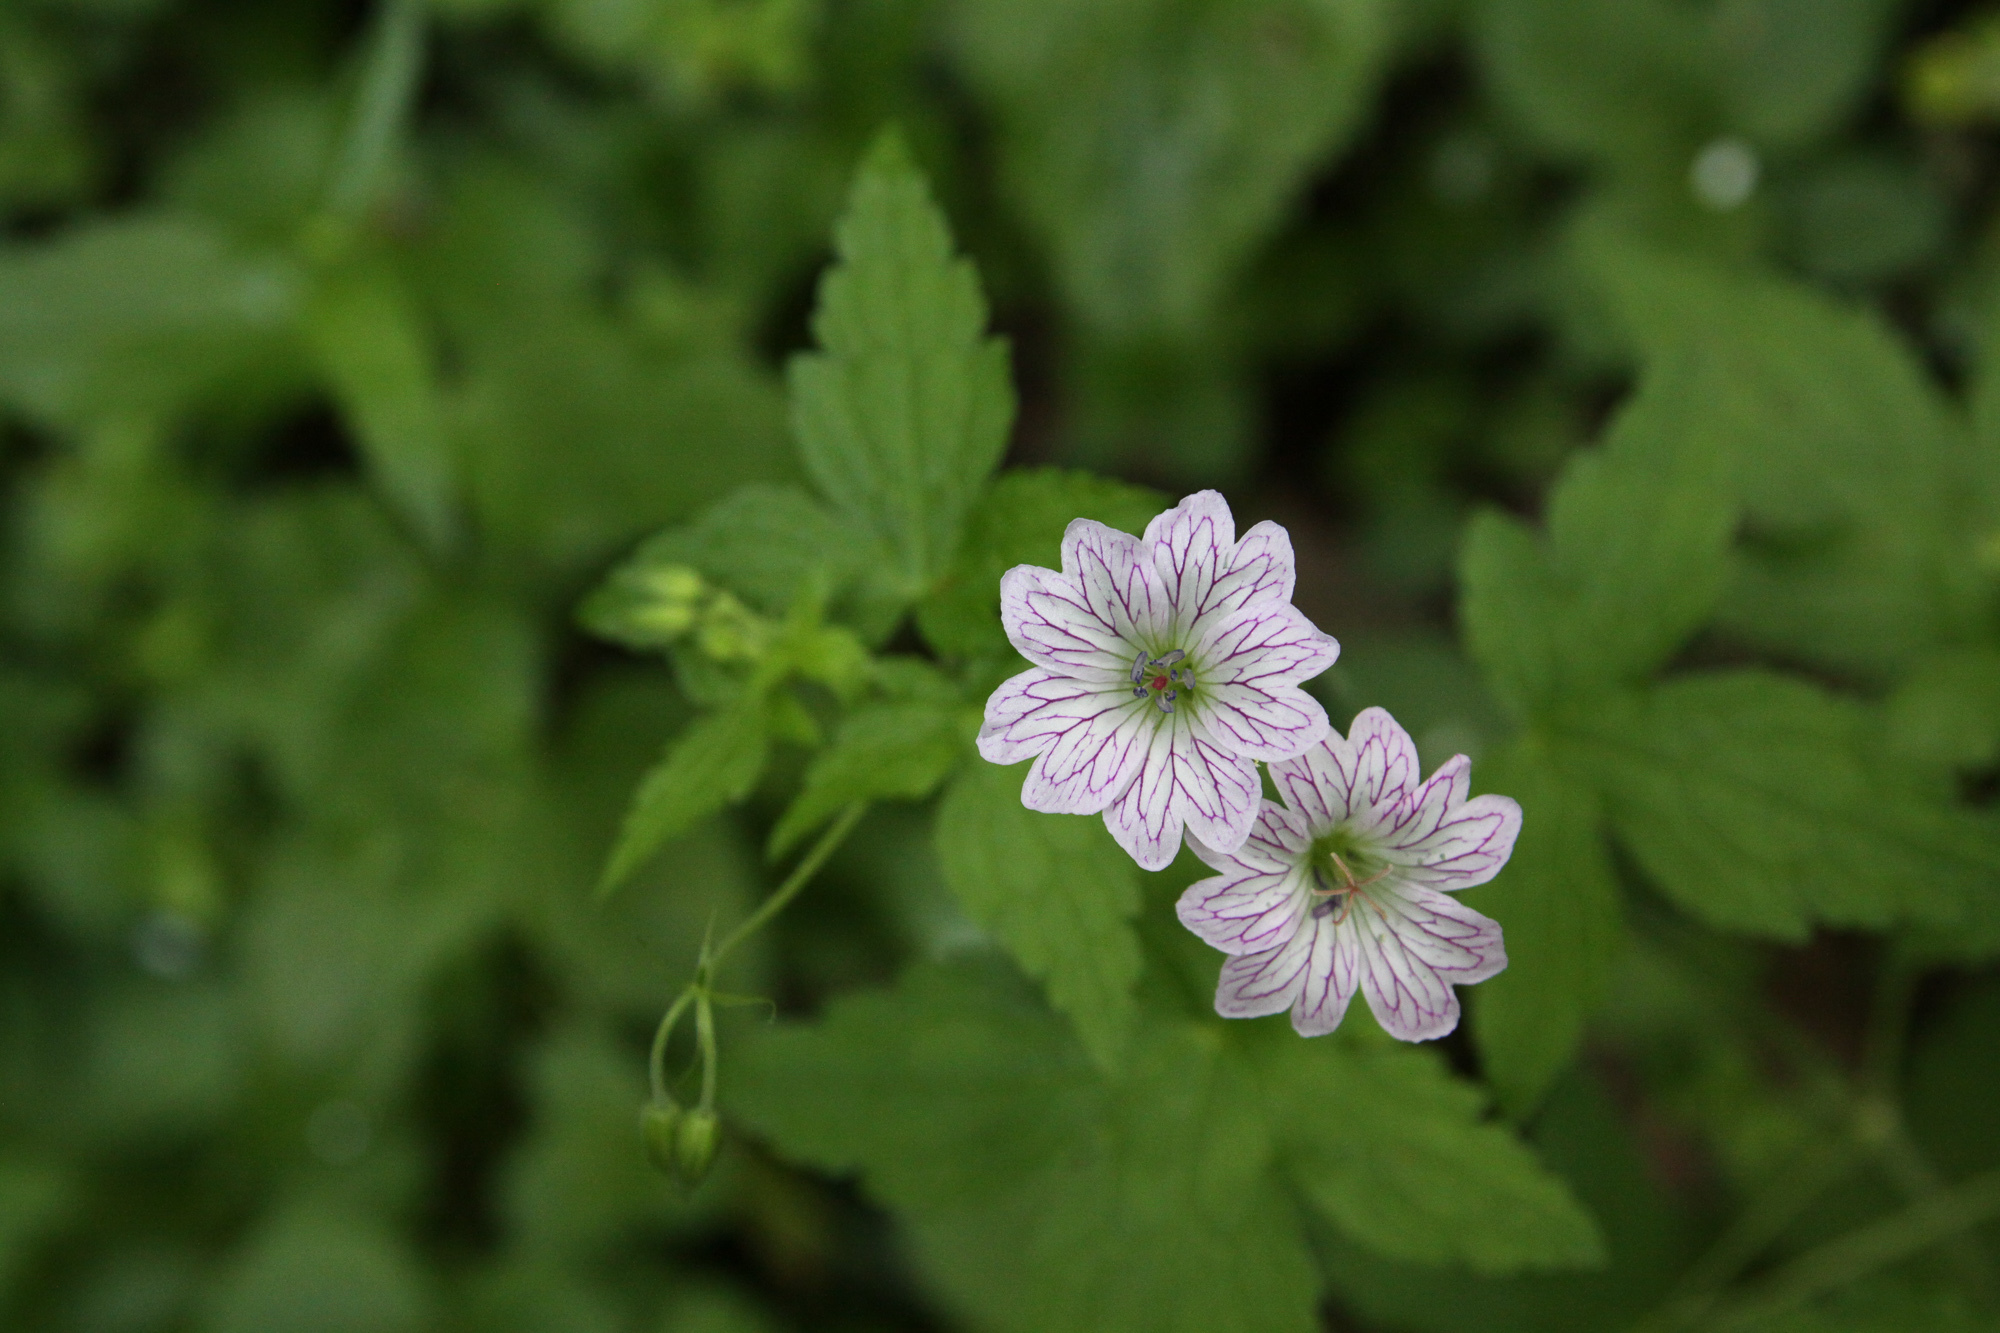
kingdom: Plantae
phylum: Tracheophyta
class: Magnoliopsida
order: Geraniales
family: Geraniaceae
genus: Geranium
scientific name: Geranium versicolor
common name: Pencilled crane's-bill
